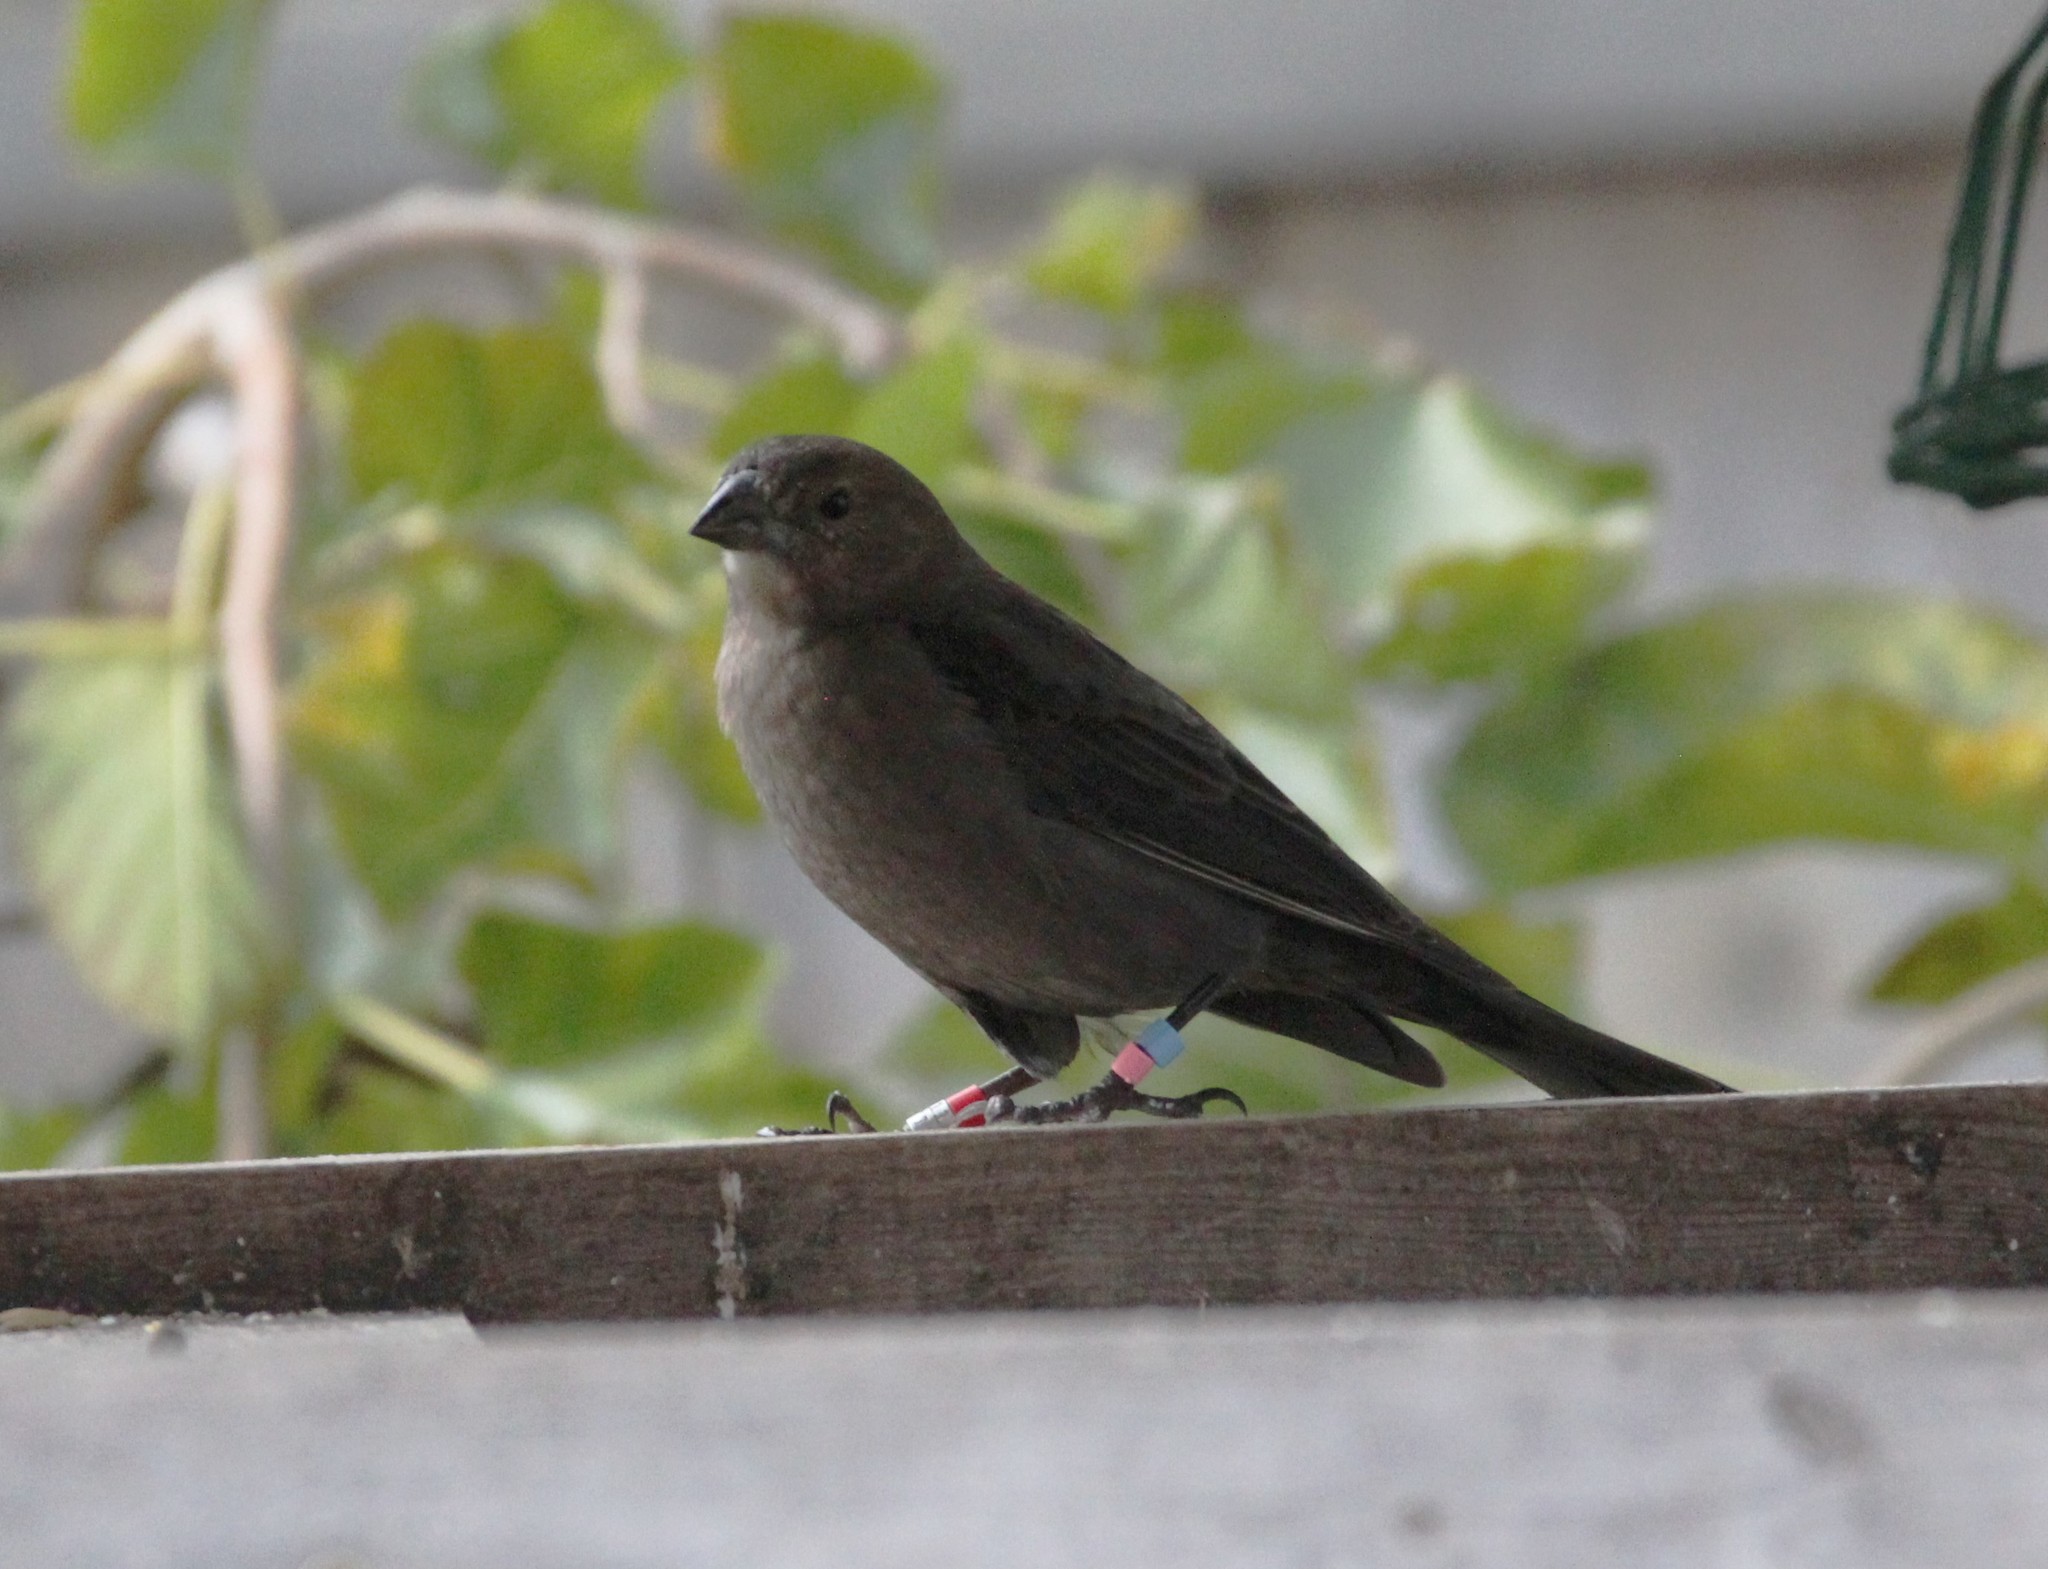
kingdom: Animalia
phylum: Chordata
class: Aves
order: Passeriformes
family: Icteridae
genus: Molothrus
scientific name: Molothrus ater
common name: Brown-headed cowbird
